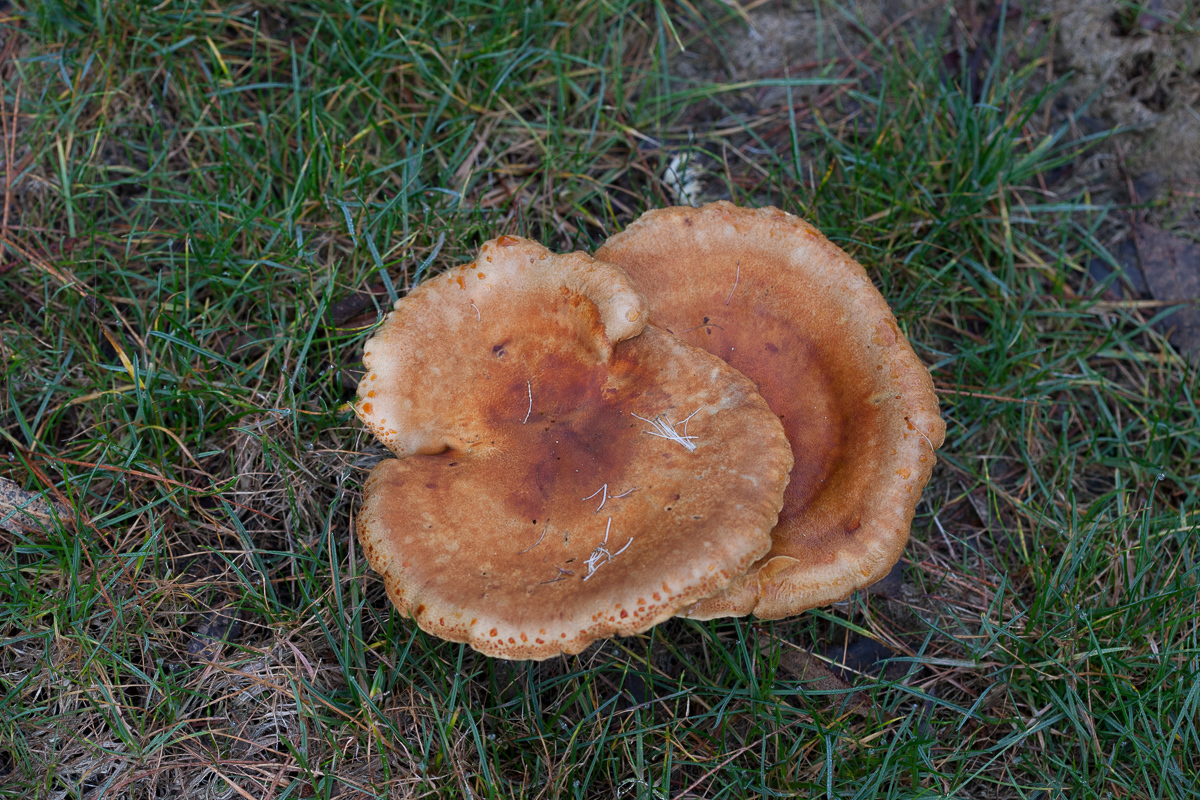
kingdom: Fungi
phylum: Basidiomycota
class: Agaricomycetes
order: Boletales
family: Hygrophoropsidaceae
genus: Hygrophoropsis
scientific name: Hygrophoropsis aurantiaca
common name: False chanterelle
